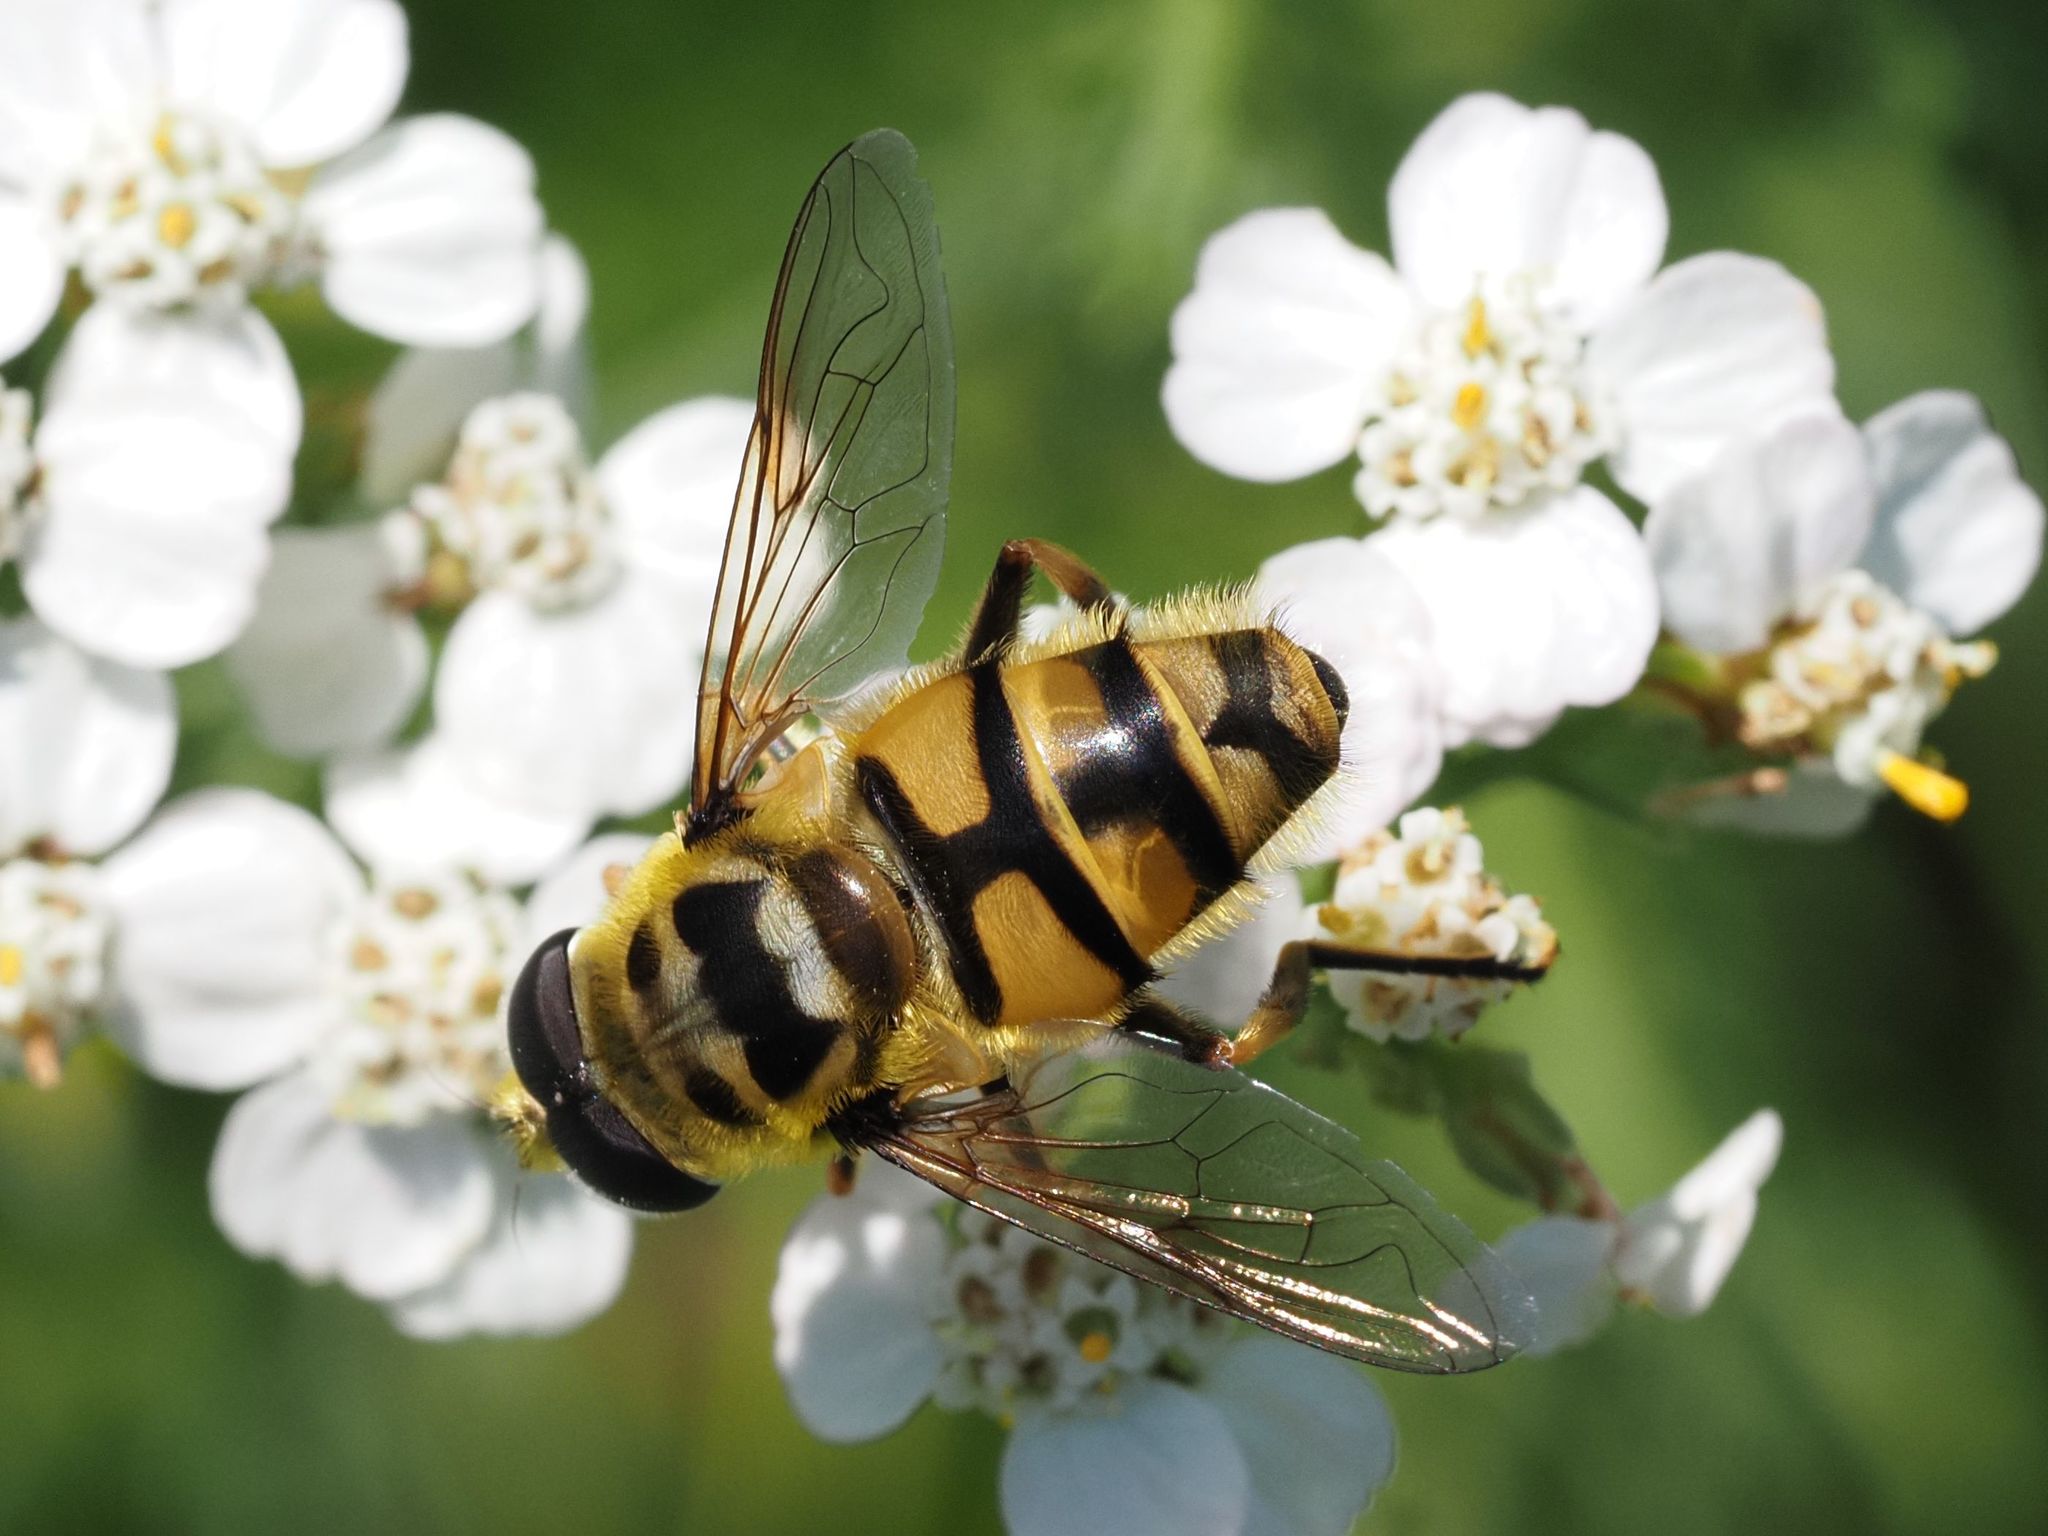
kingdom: Animalia
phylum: Arthropoda
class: Insecta
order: Diptera
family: Syrphidae
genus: Myathropa
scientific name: Myathropa florea
